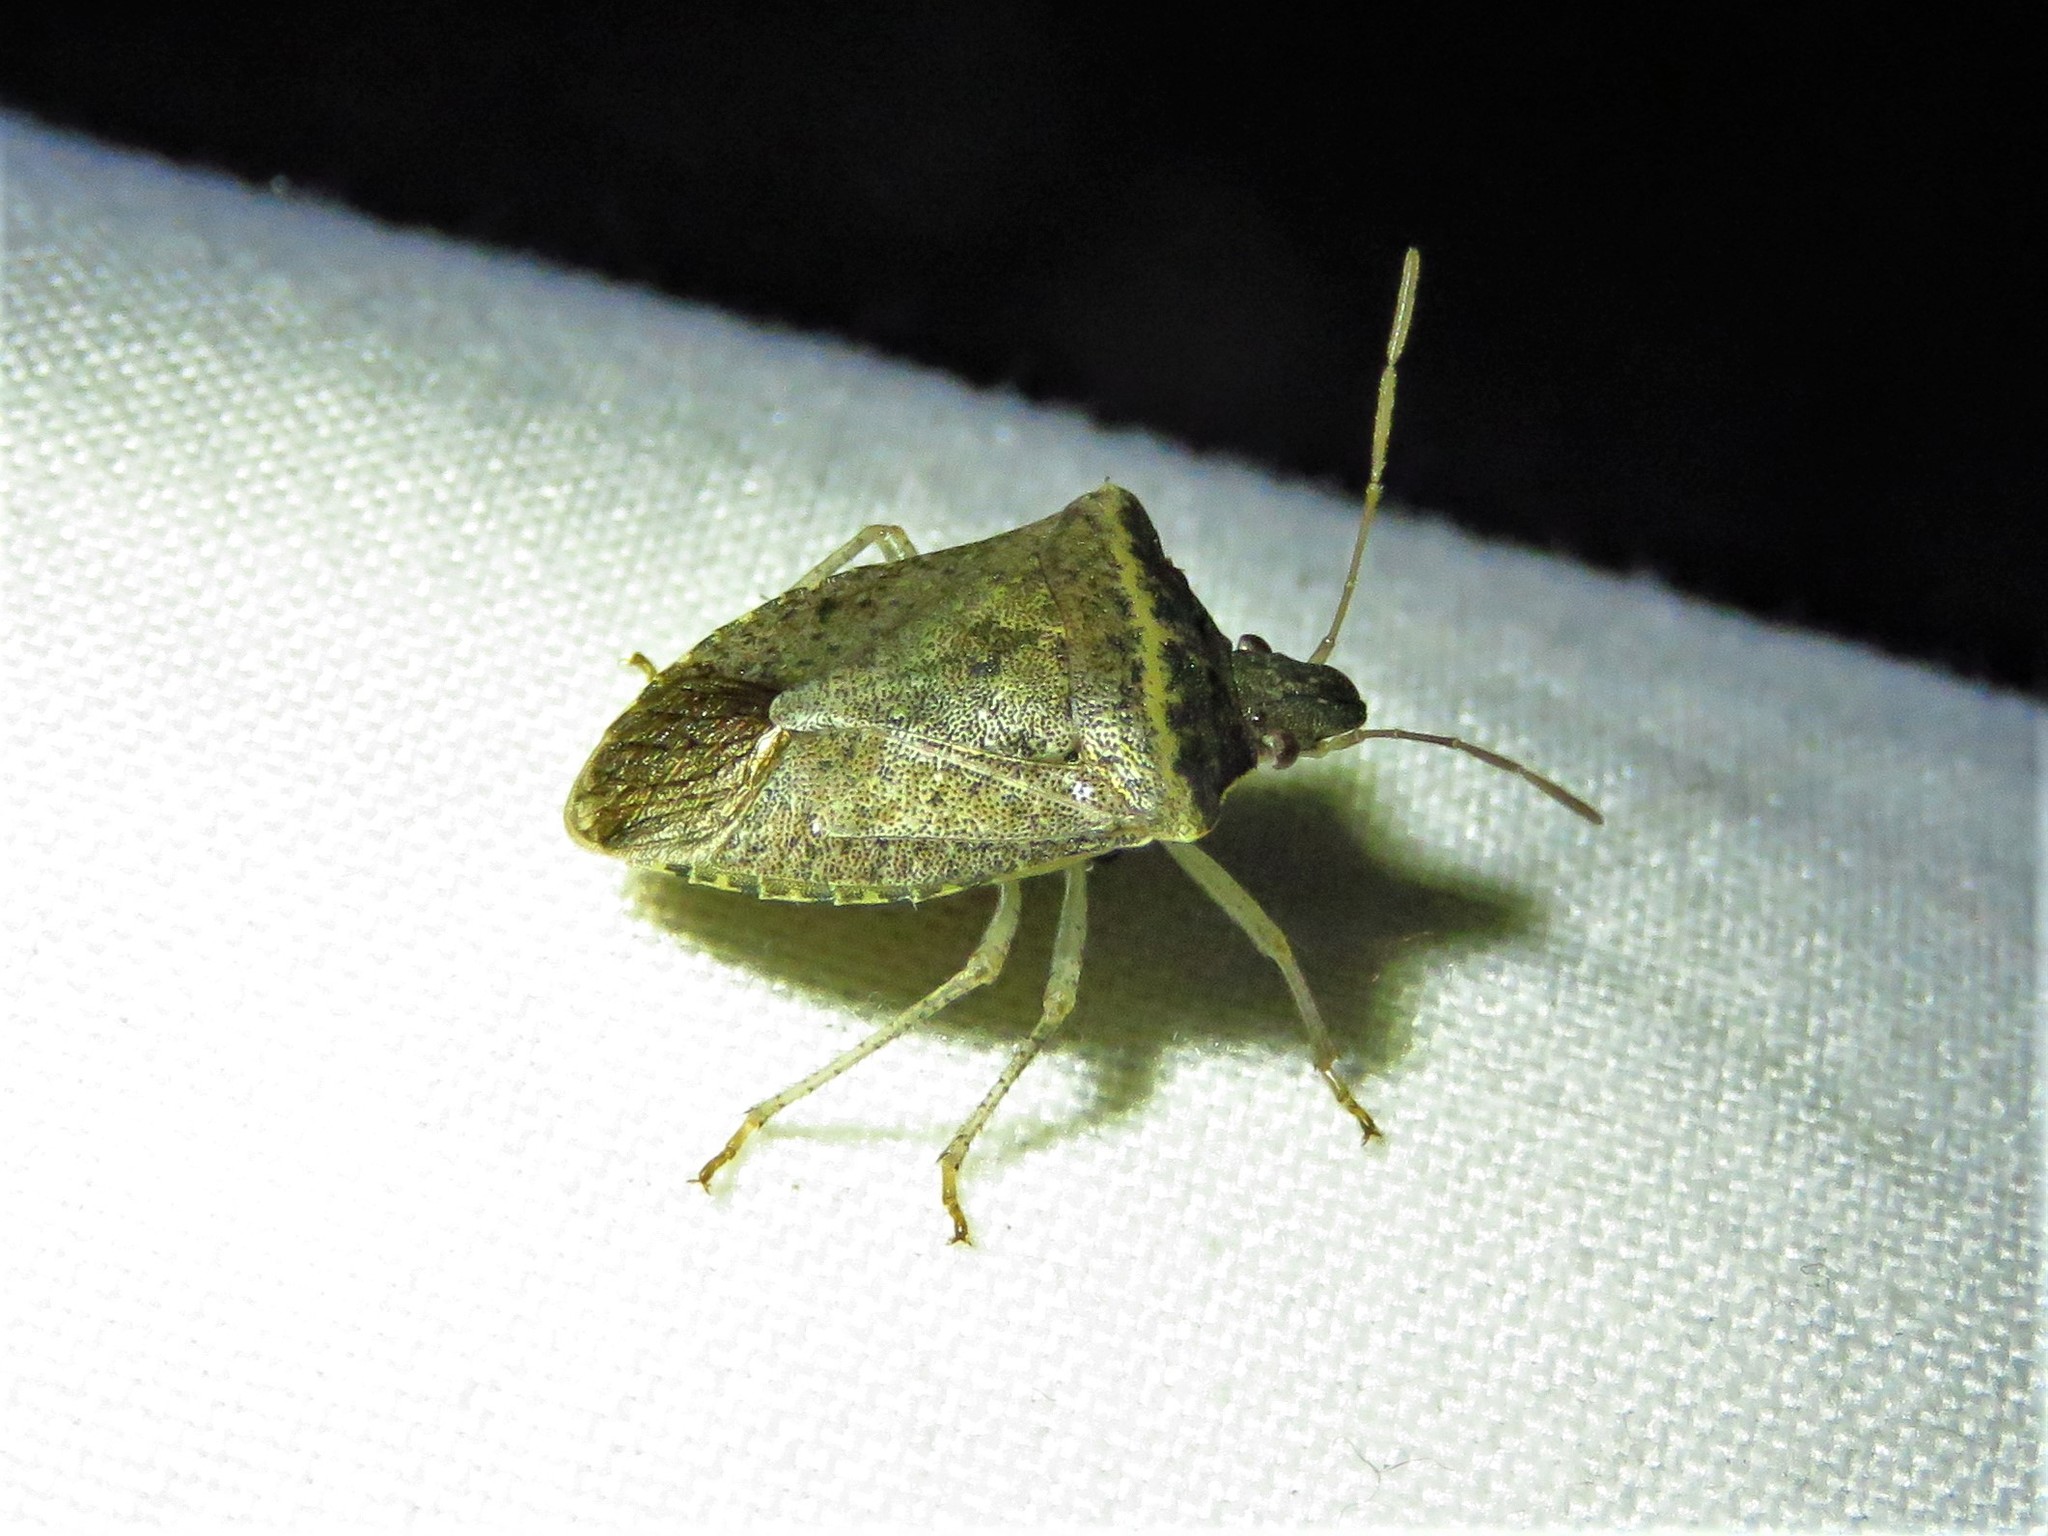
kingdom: Animalia
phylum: Arthropoda
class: Insecta
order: Hemiptera
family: Pentatomidae
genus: Euschistus
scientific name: Euschistus obscurus
